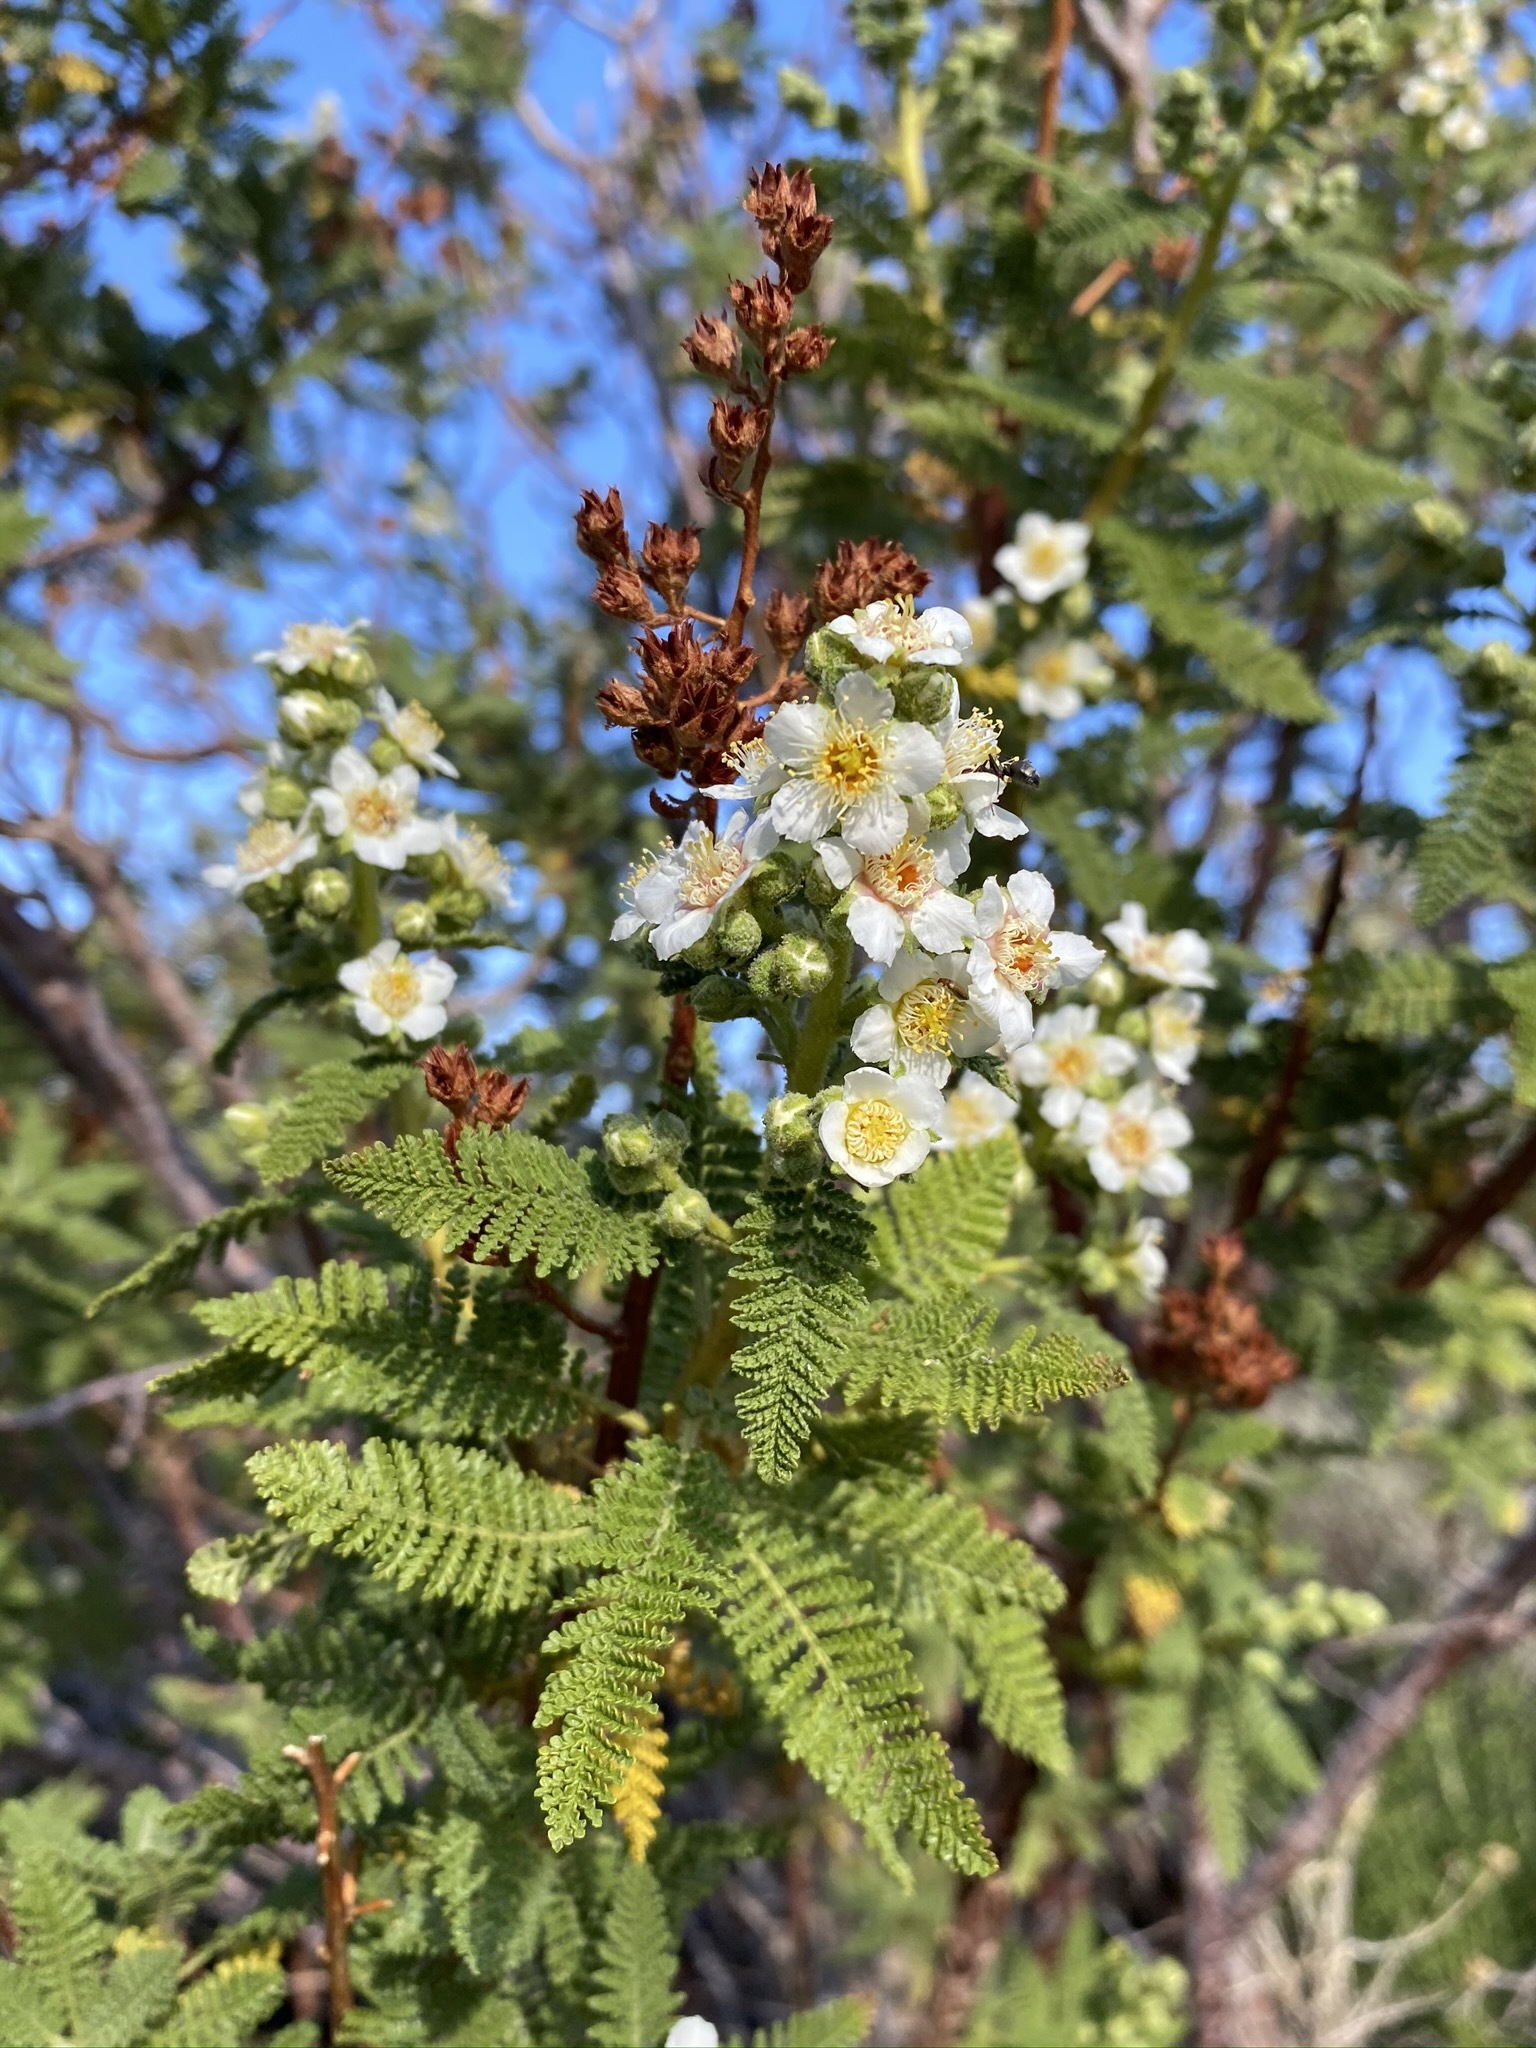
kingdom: Plantae
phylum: Tracheophyta
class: Magnoliopsida
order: Rosales
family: Rosaceae
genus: Chamaebatiaria
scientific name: Chamaebatiaria millefolium
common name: Fernbush
